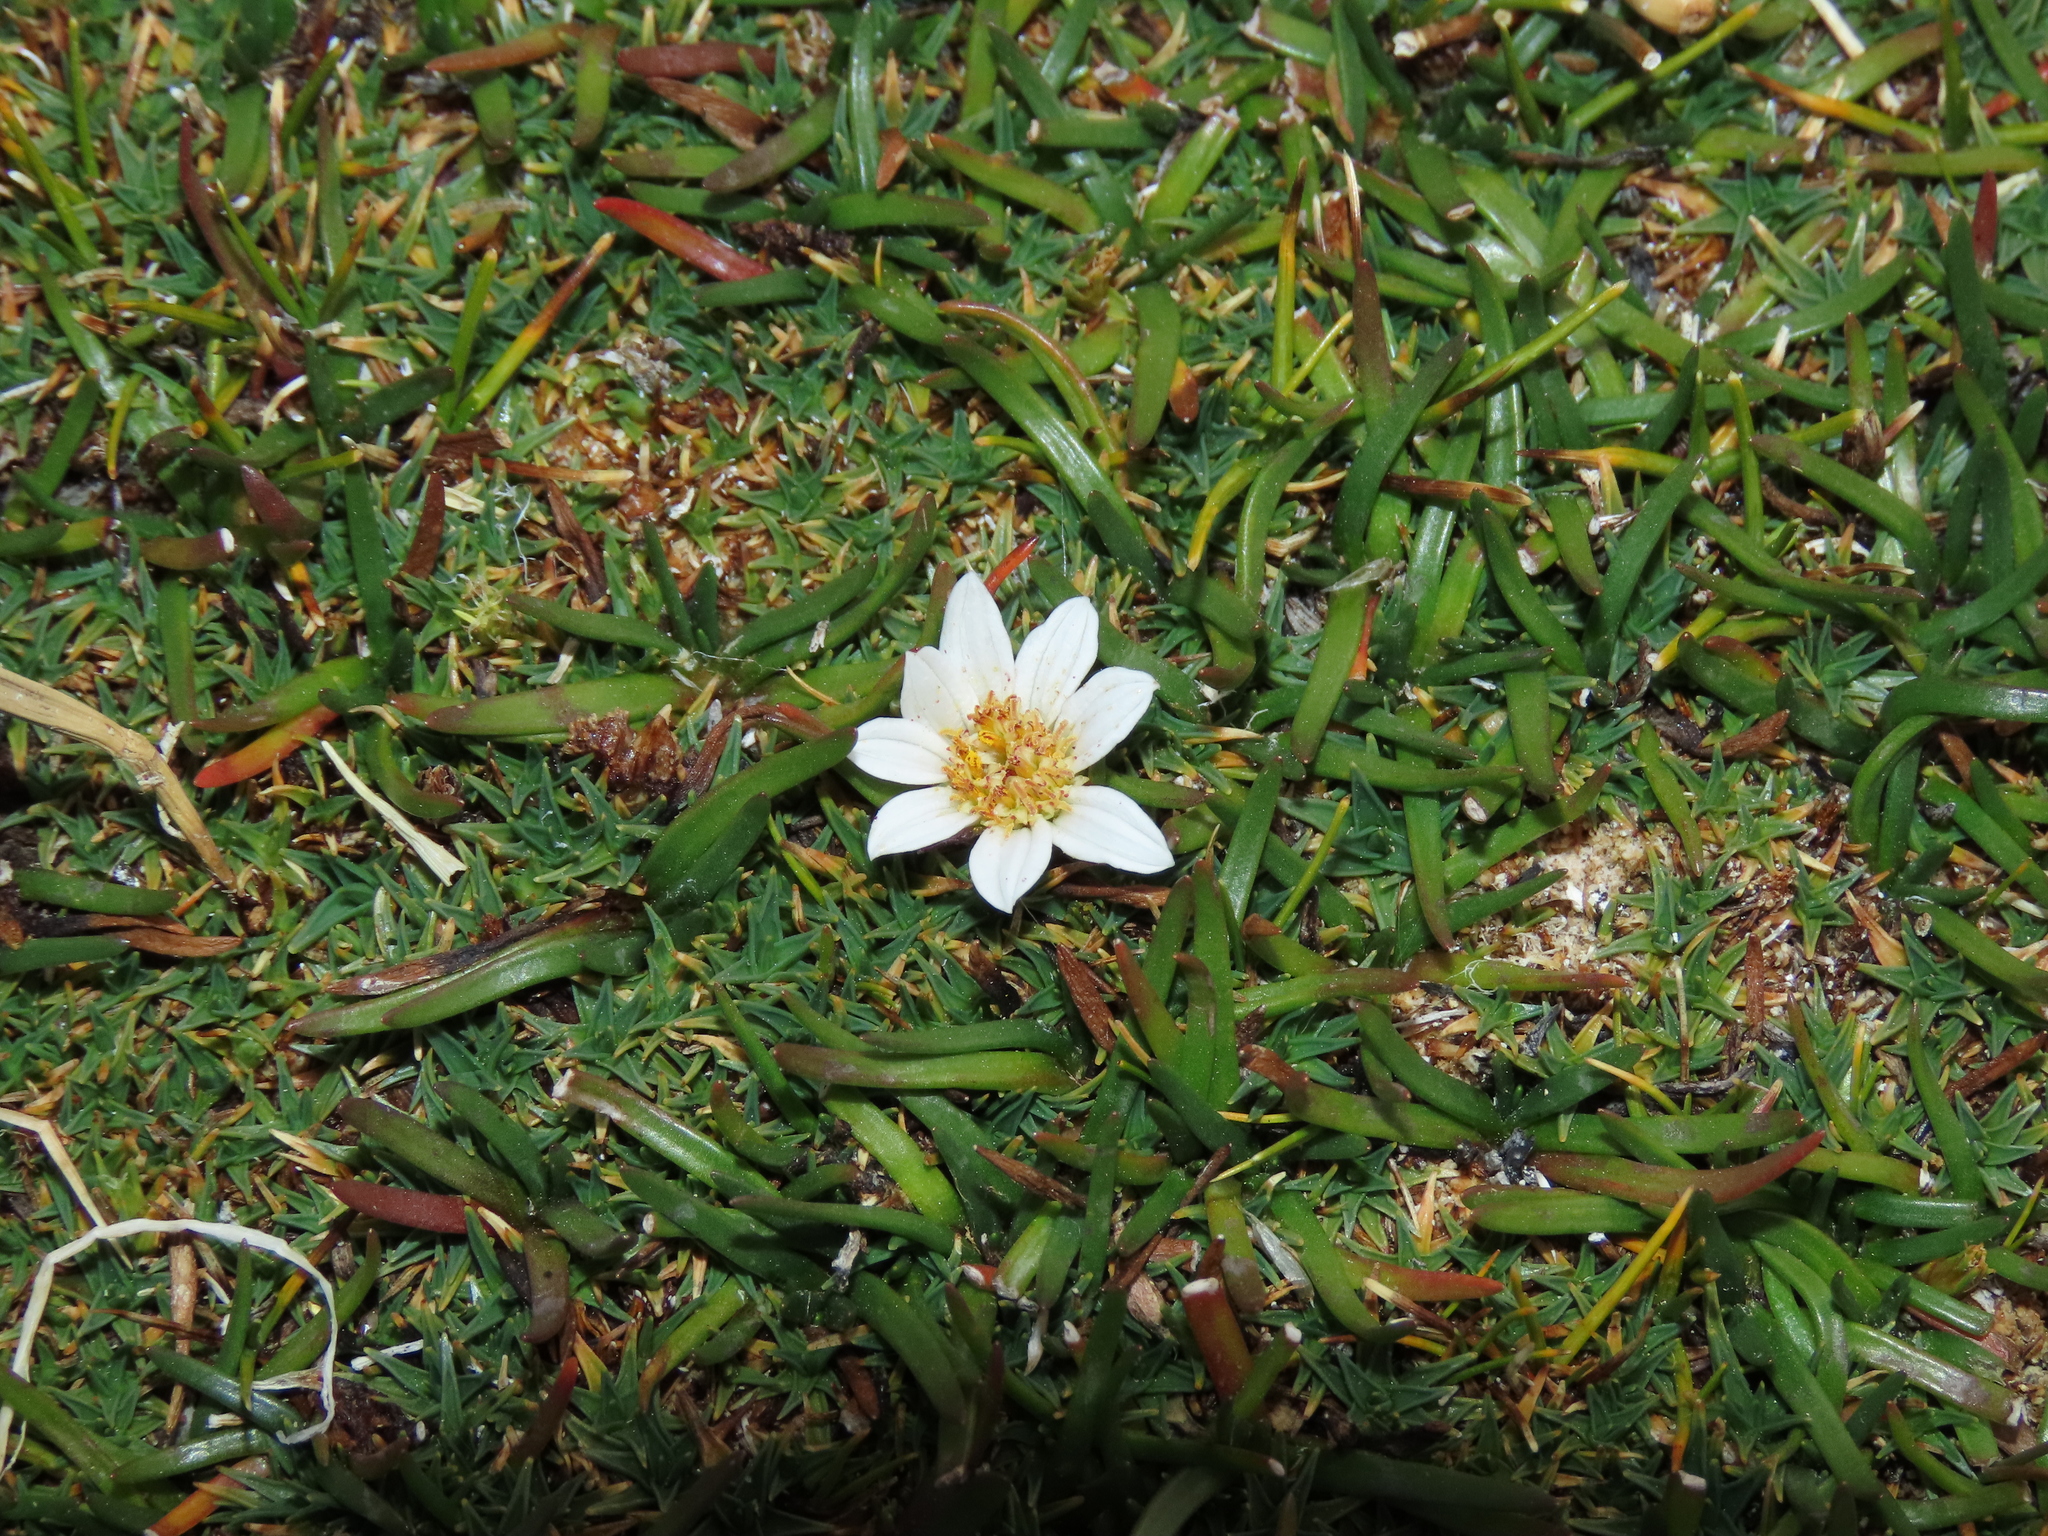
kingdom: Plantae
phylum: Tracheophyta
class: Magnoliopsida
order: Asterales
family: Asteraceae
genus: Rockhausenia
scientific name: Rockhausenia pygmaea
